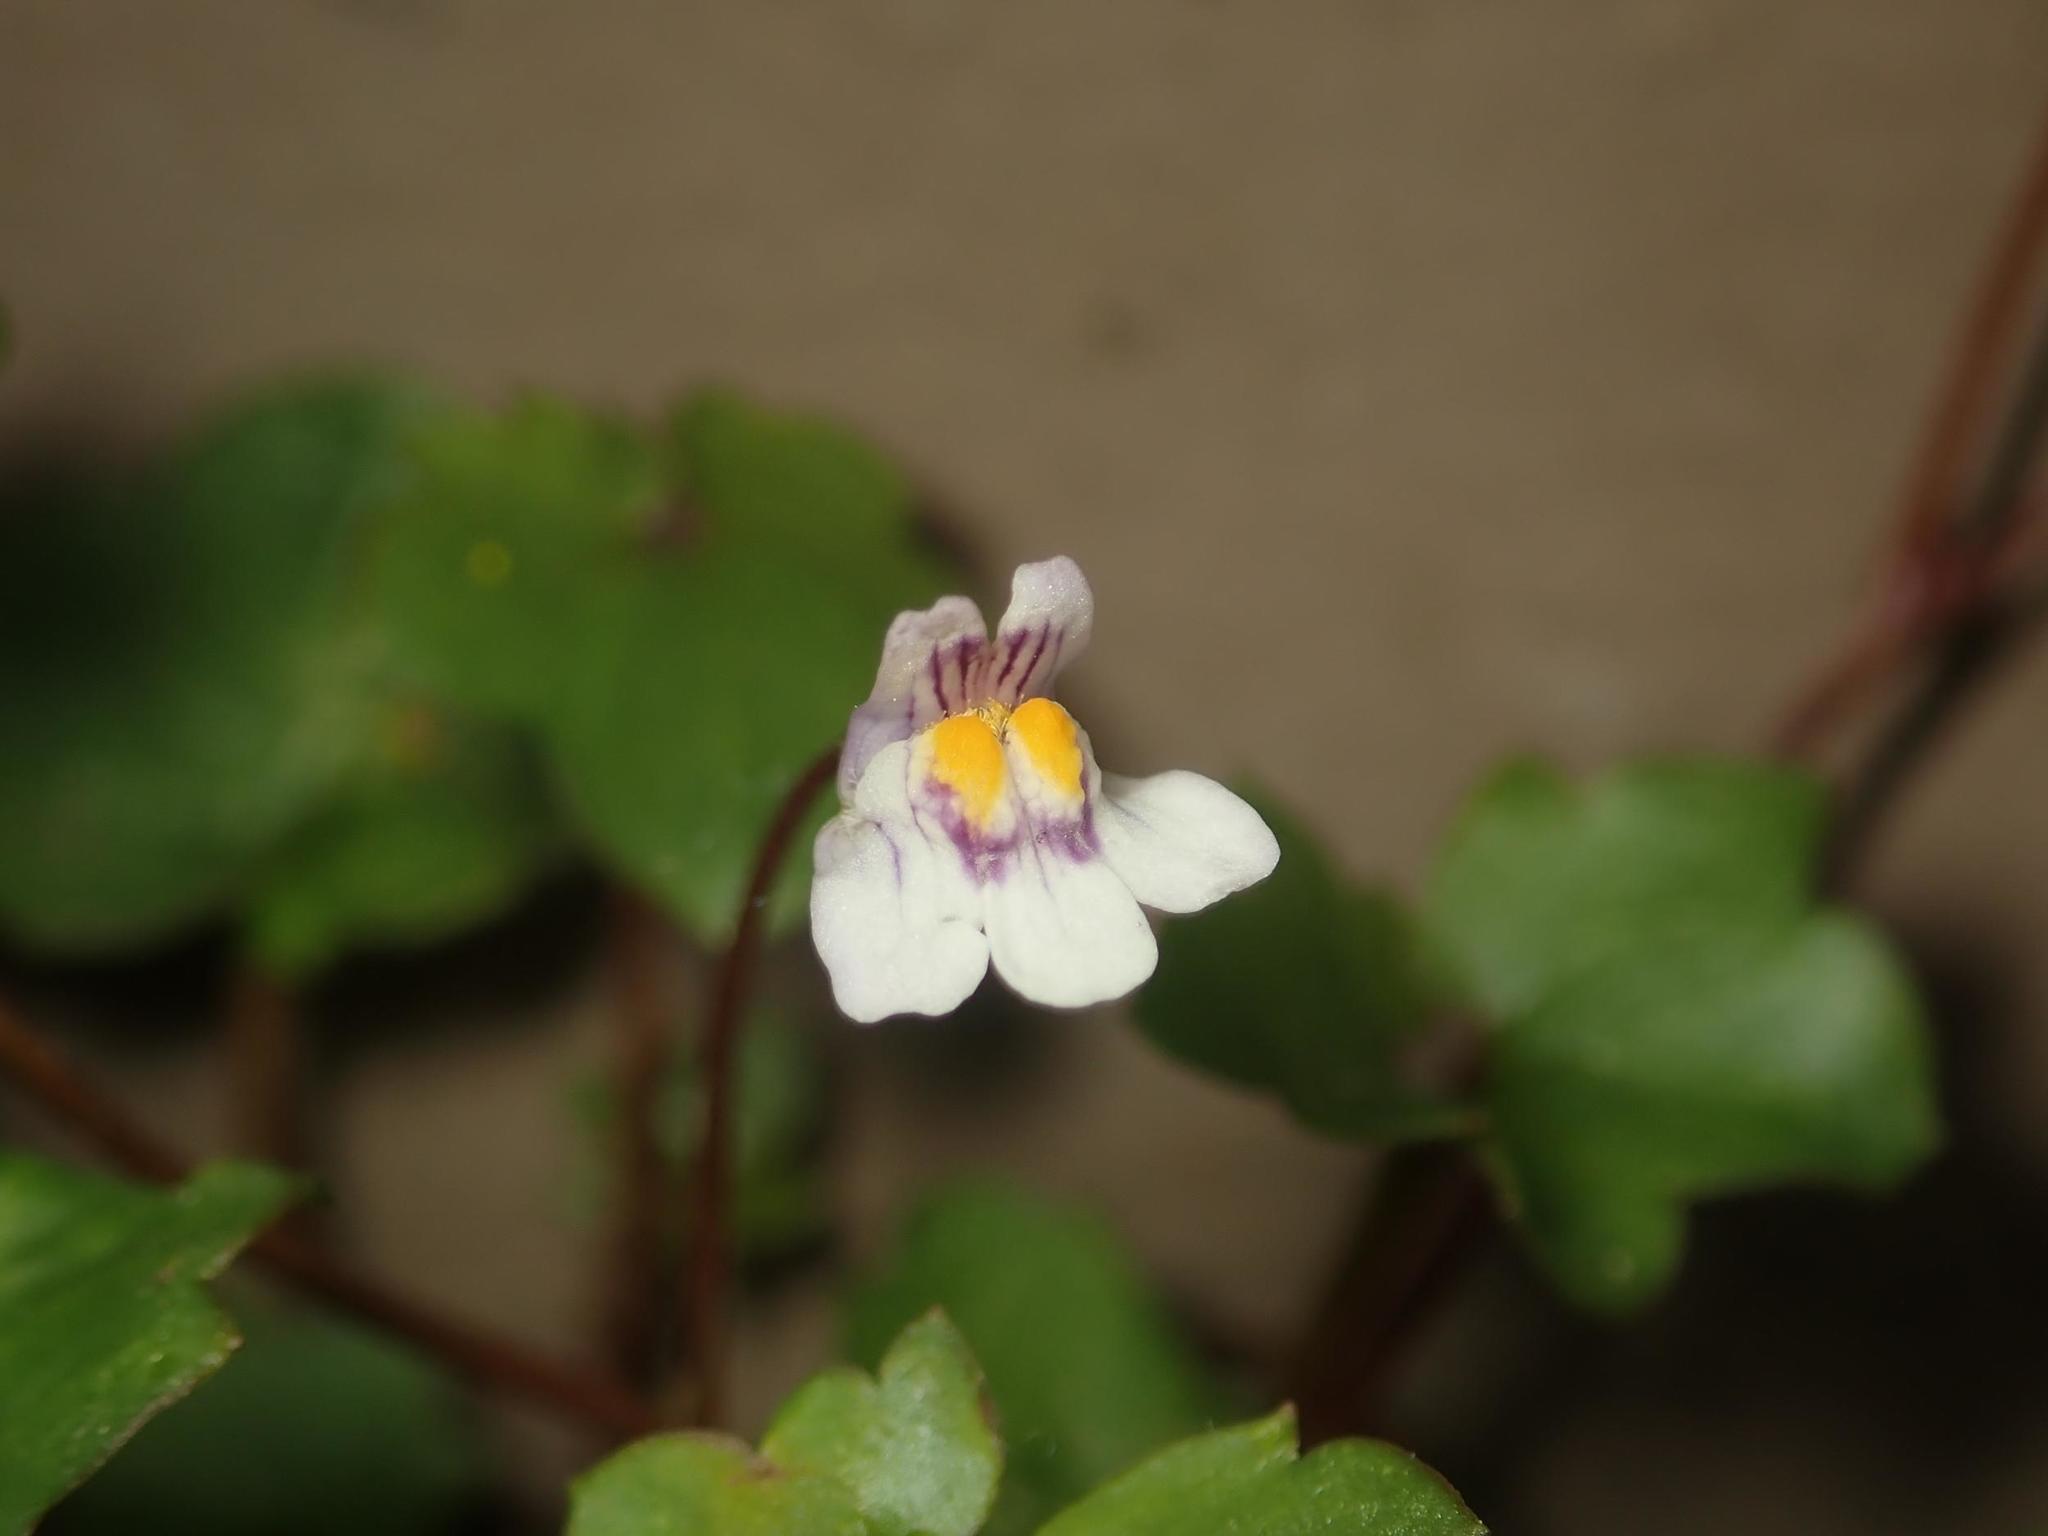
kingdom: Plantae
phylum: Tracheophyta
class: Magnoliopsida
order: Lamiales
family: Plantaginaceae
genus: Cymbalaria
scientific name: Cymbalaria muralis
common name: Ivy-leaved toadflax
